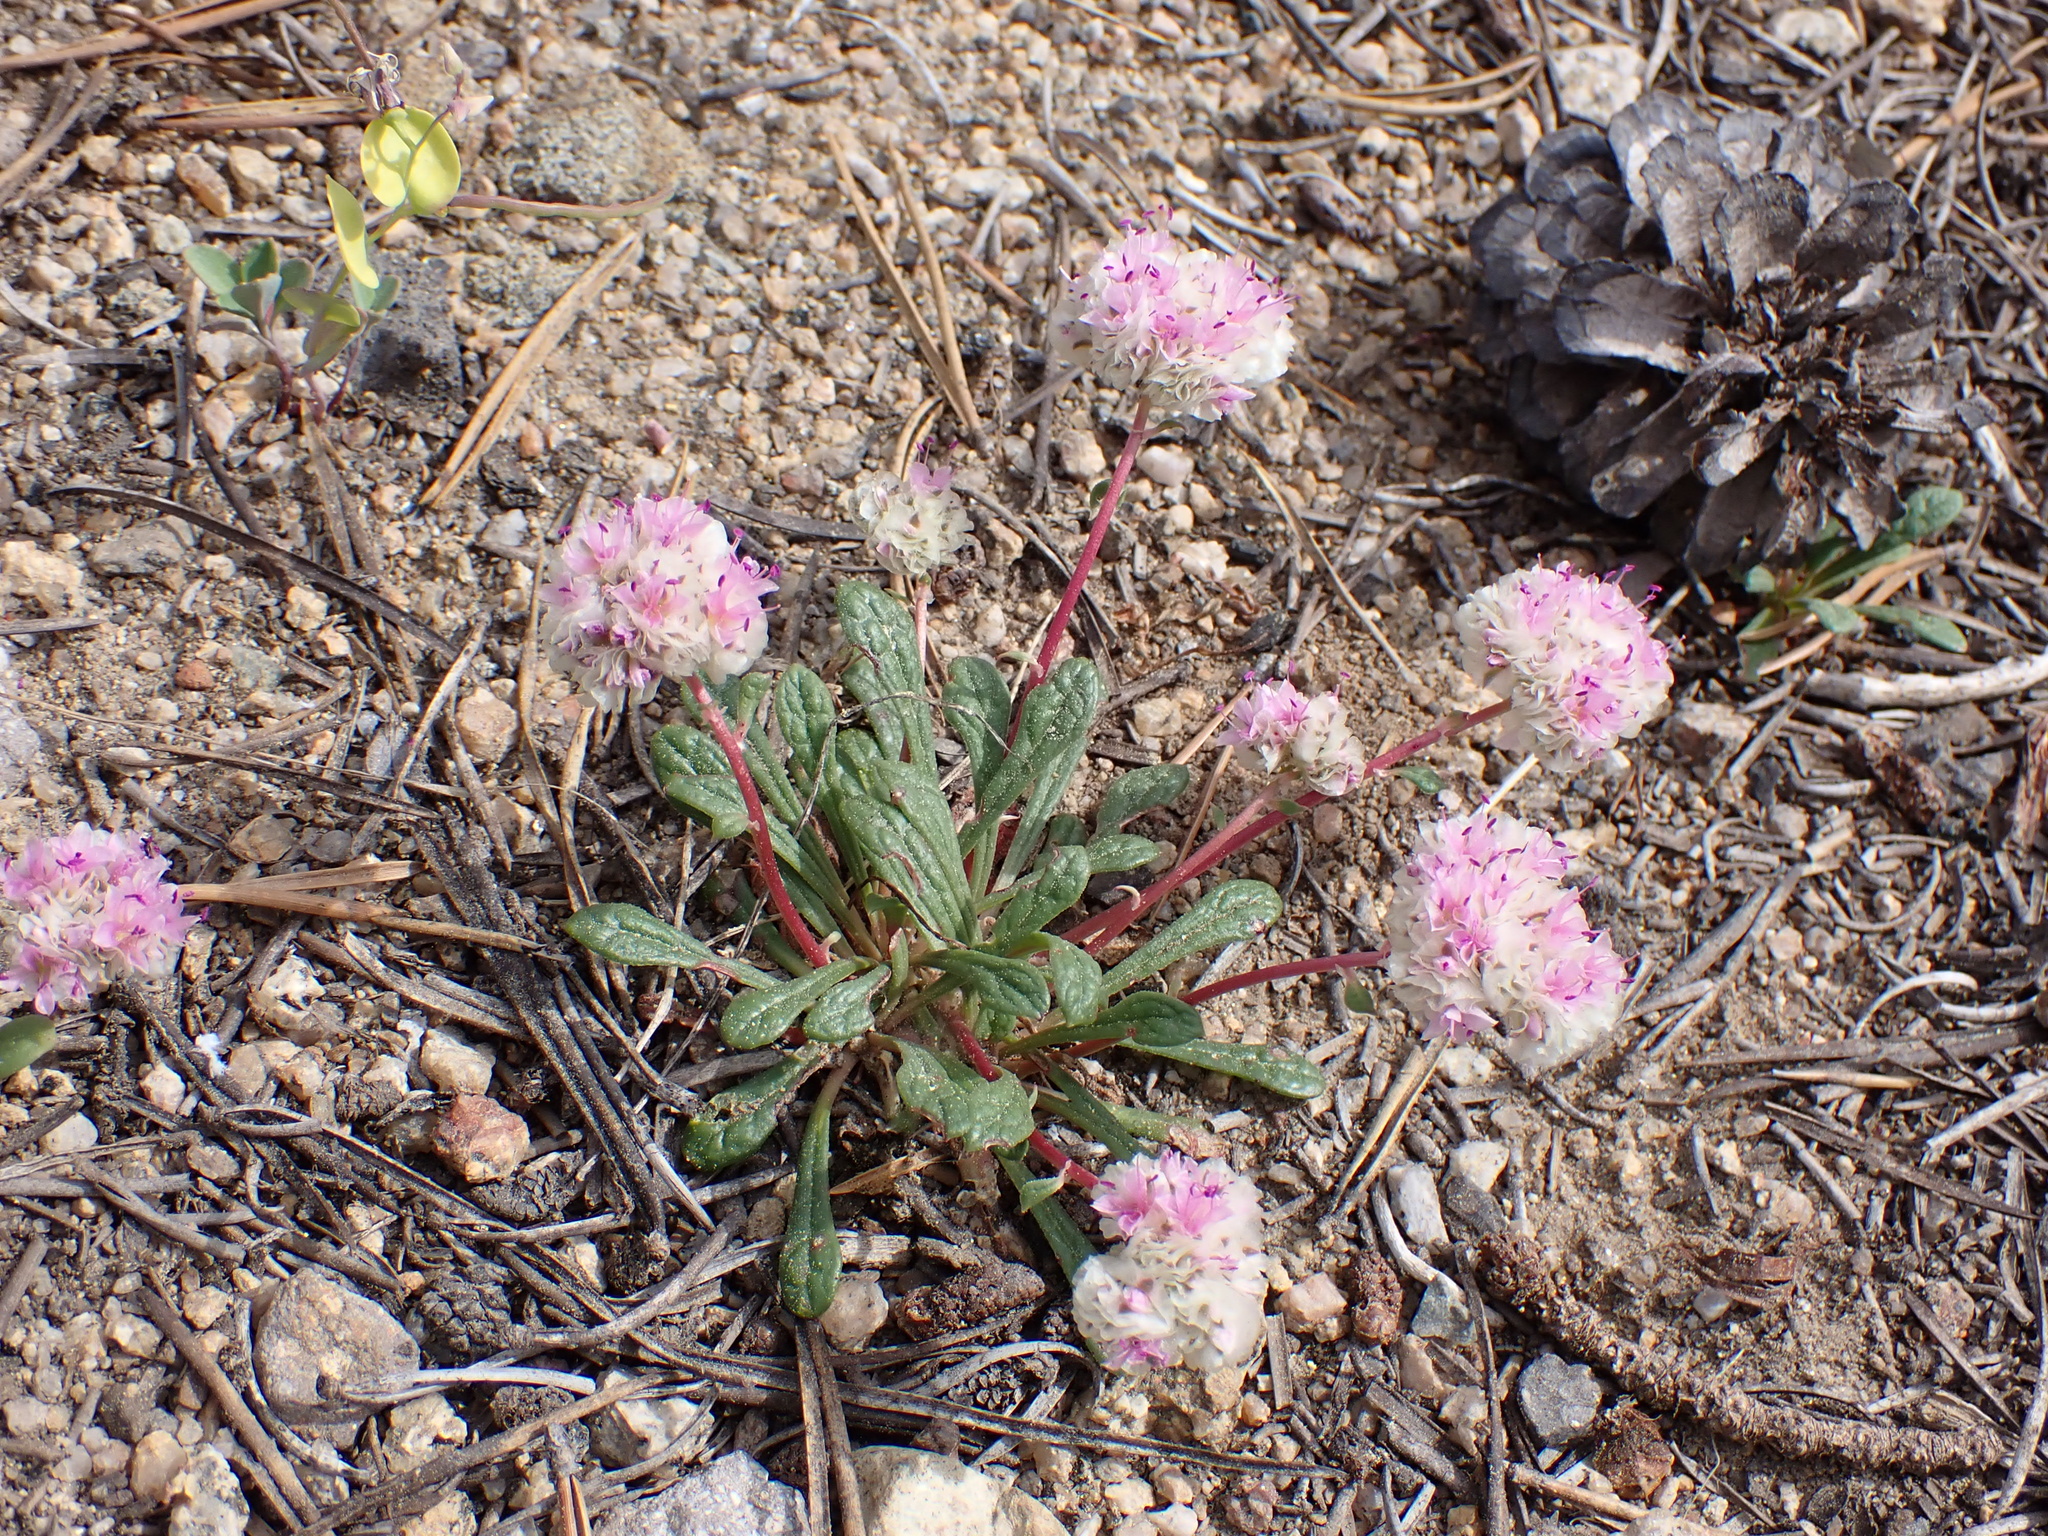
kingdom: Plantae
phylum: Tracheophyta
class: Magnoliopsida
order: Caryophyllales
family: Montiaceae
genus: Calyptridium
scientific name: Calyptridium umbellatum
